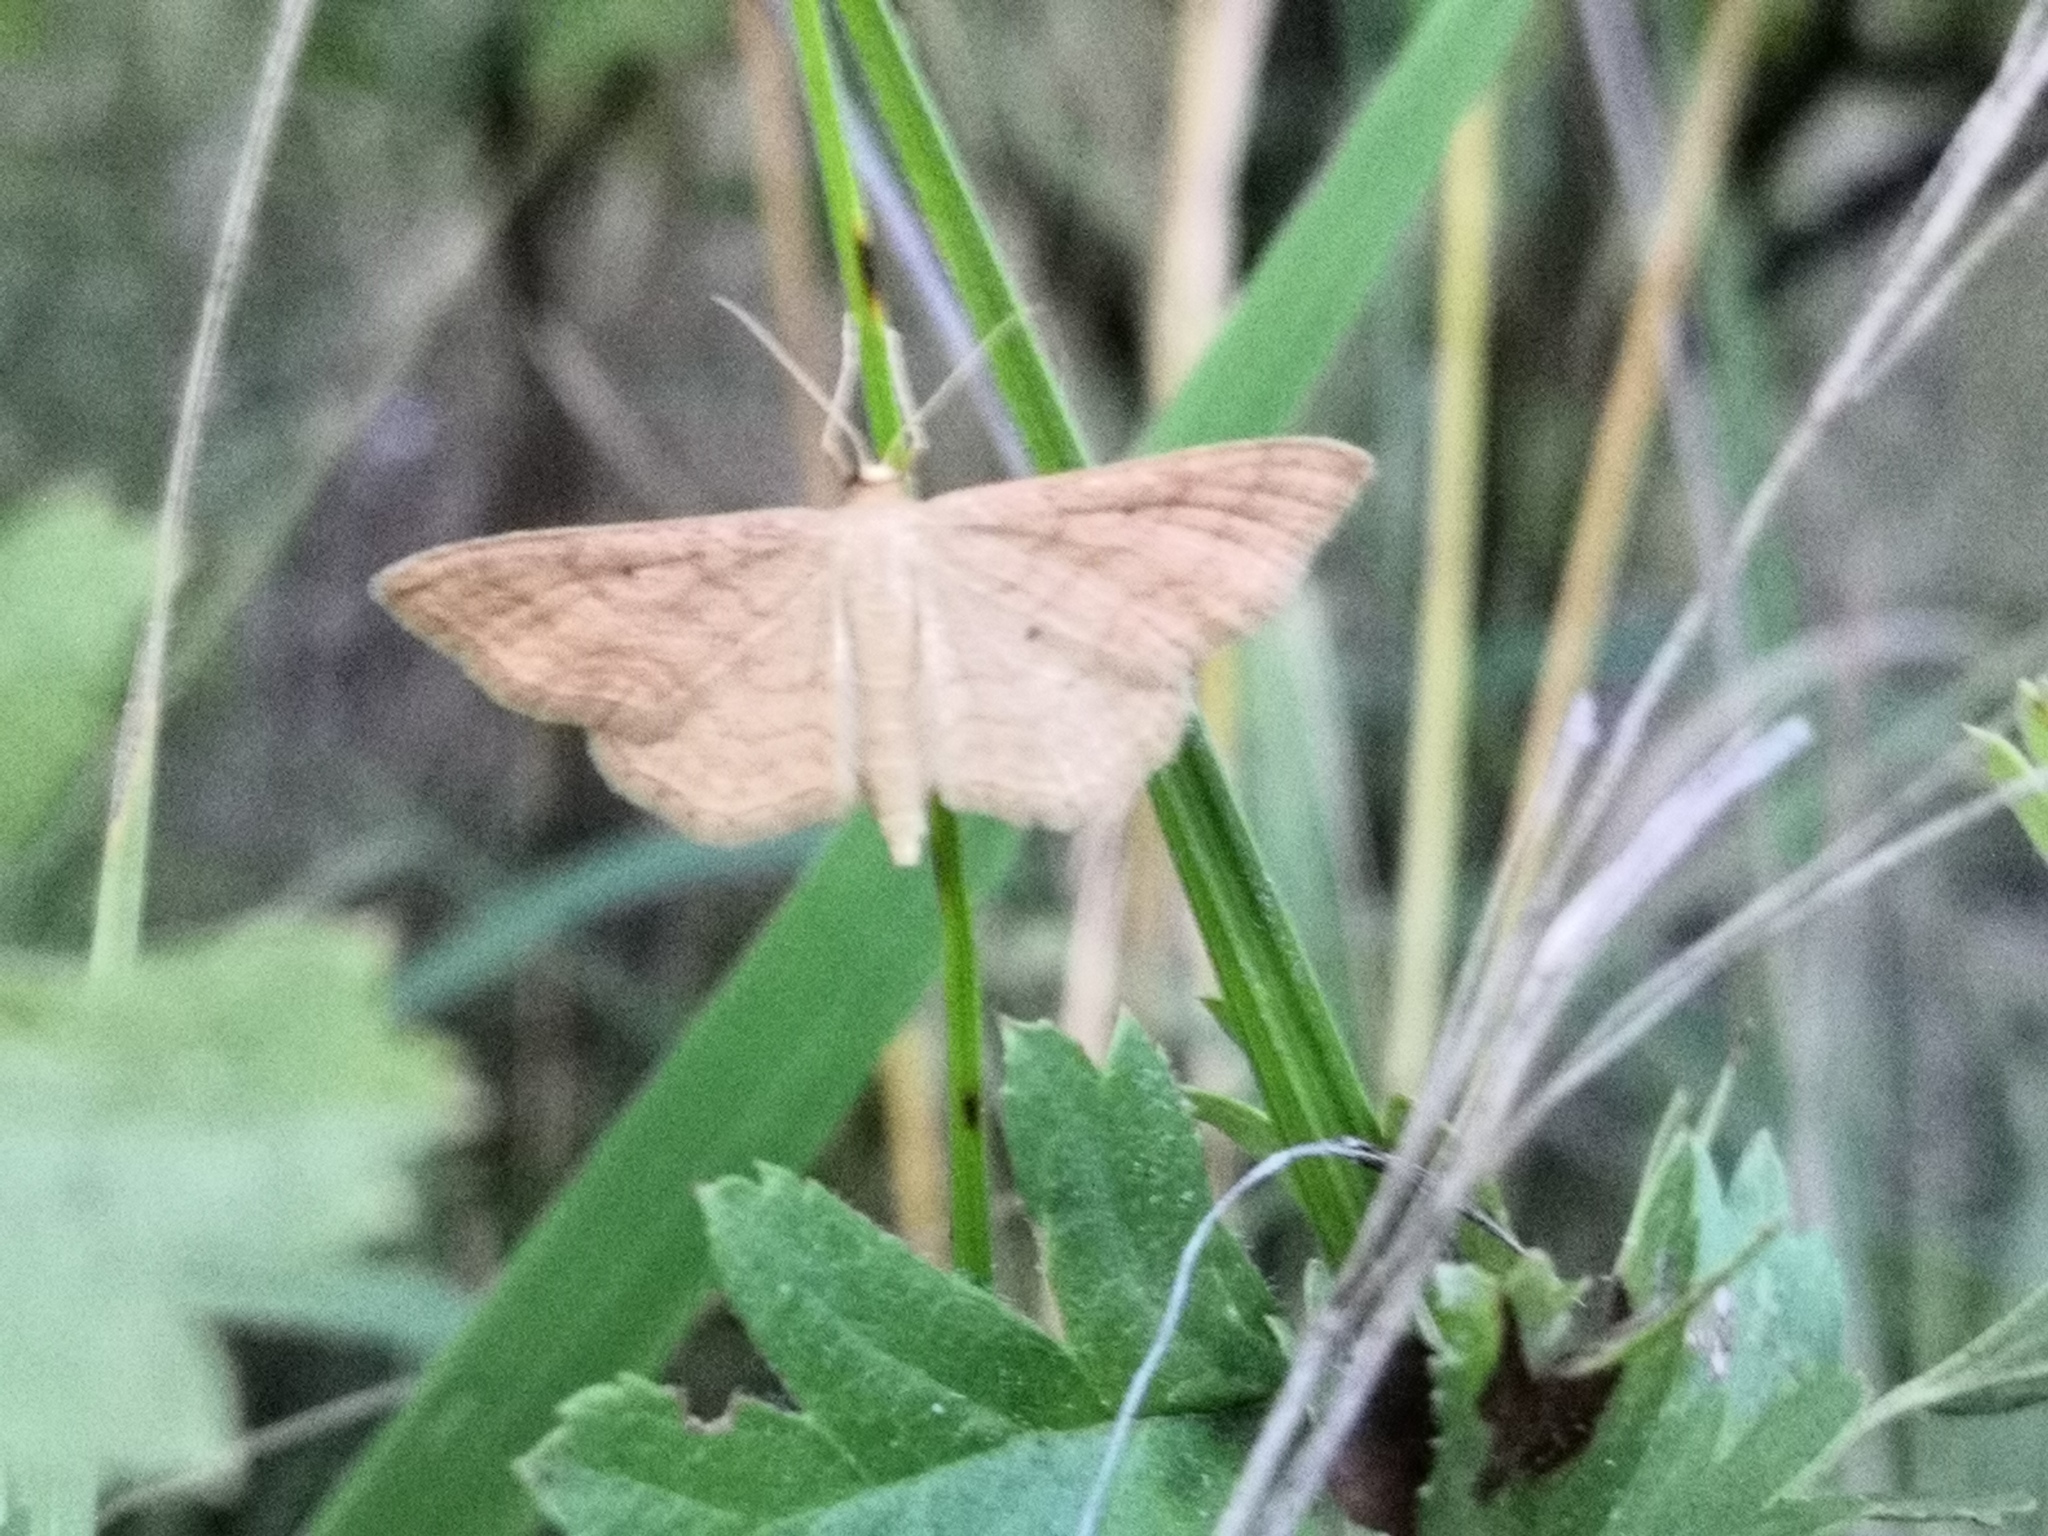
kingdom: Animalia
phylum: Arthropoda
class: Insecta
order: Lepidoptera
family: Geometridae
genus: Idaea
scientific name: Idaea rufaria
